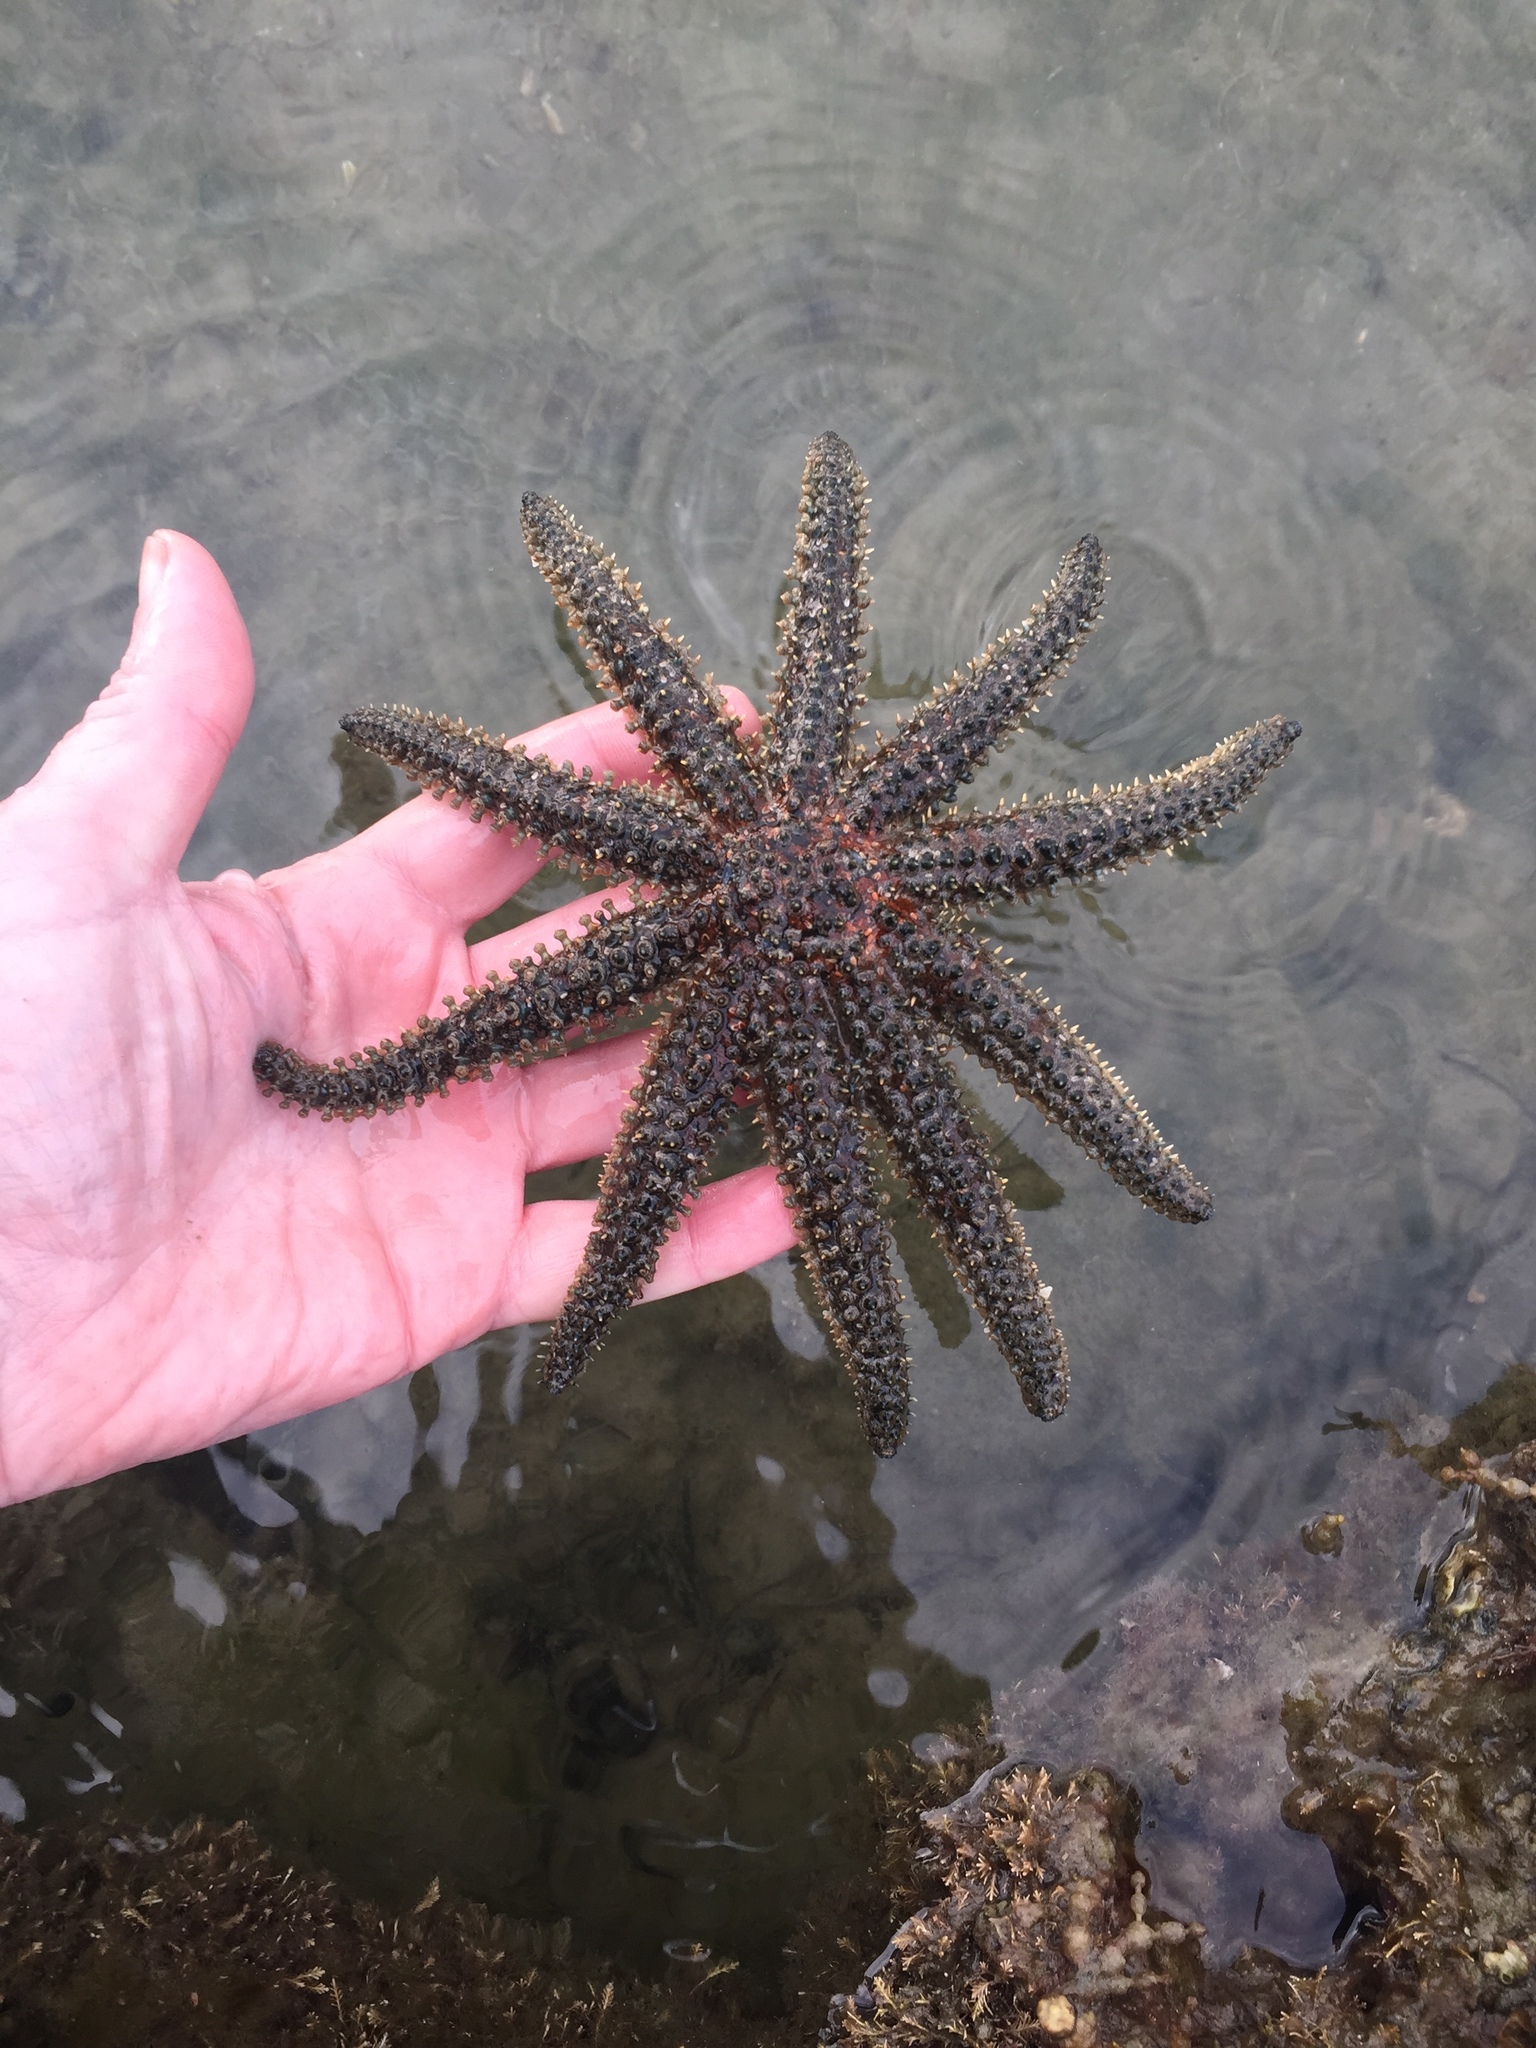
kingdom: Animalia
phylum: Echinodermata
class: Asteroidea
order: Forcipulatida
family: Asteriidae
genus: Coscinasterias
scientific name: Coscinasterias muricata
